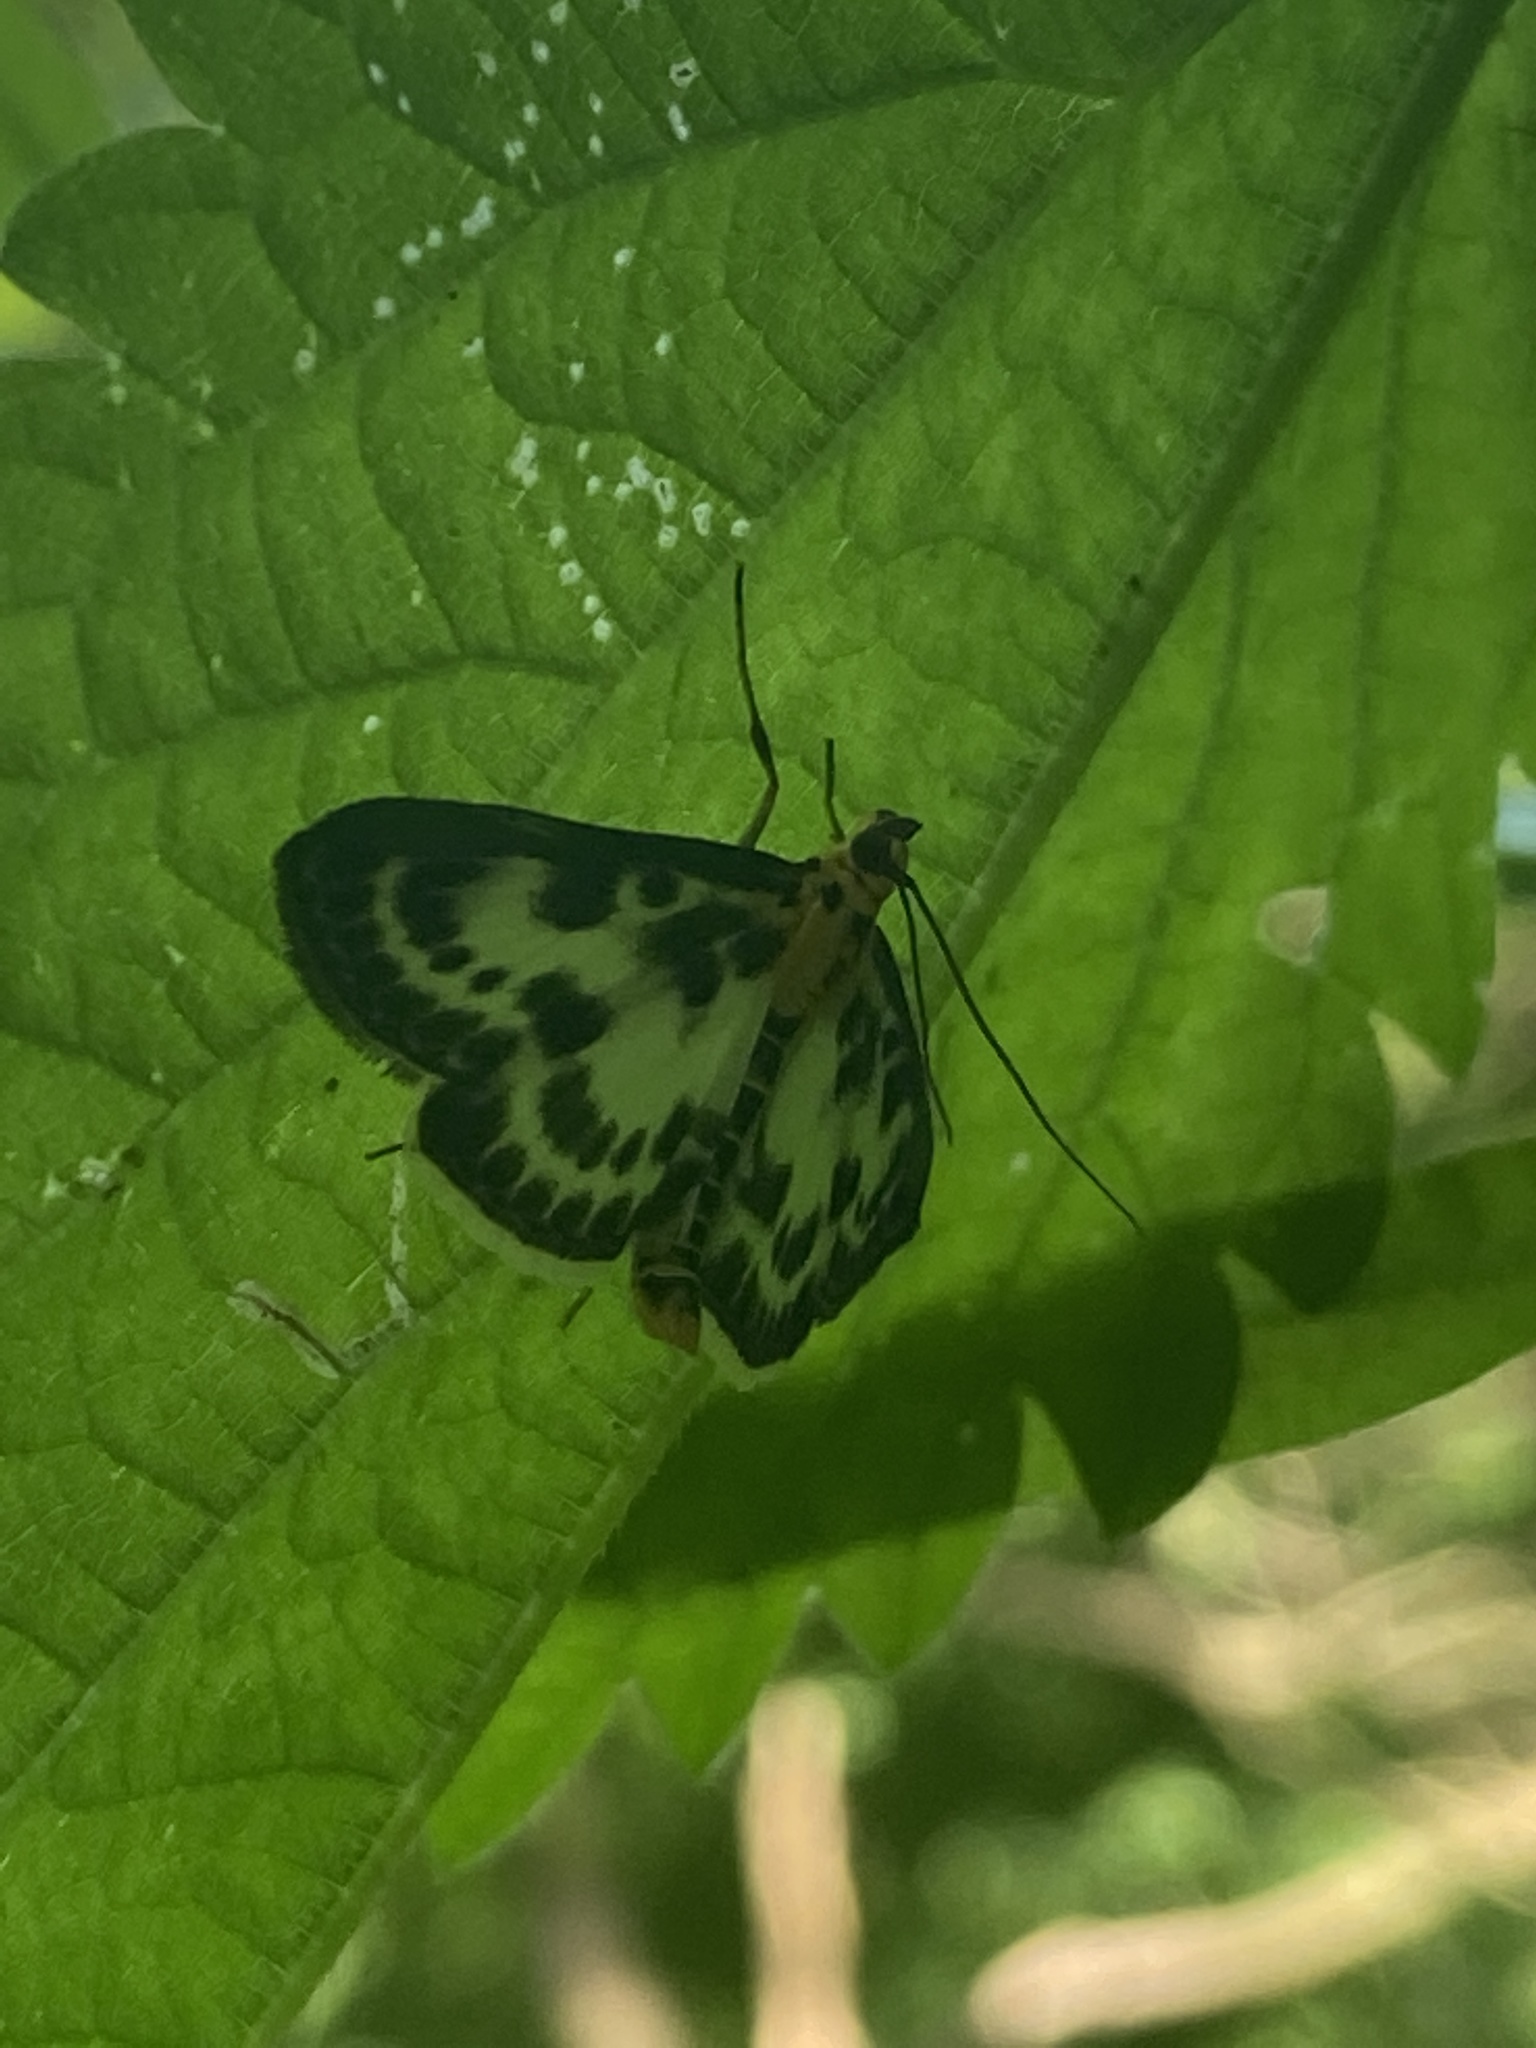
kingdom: Animalia
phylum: Arthropoda
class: Insecta
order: Lepidoptera
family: Crambidae
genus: Anania
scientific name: Anania hortulata
